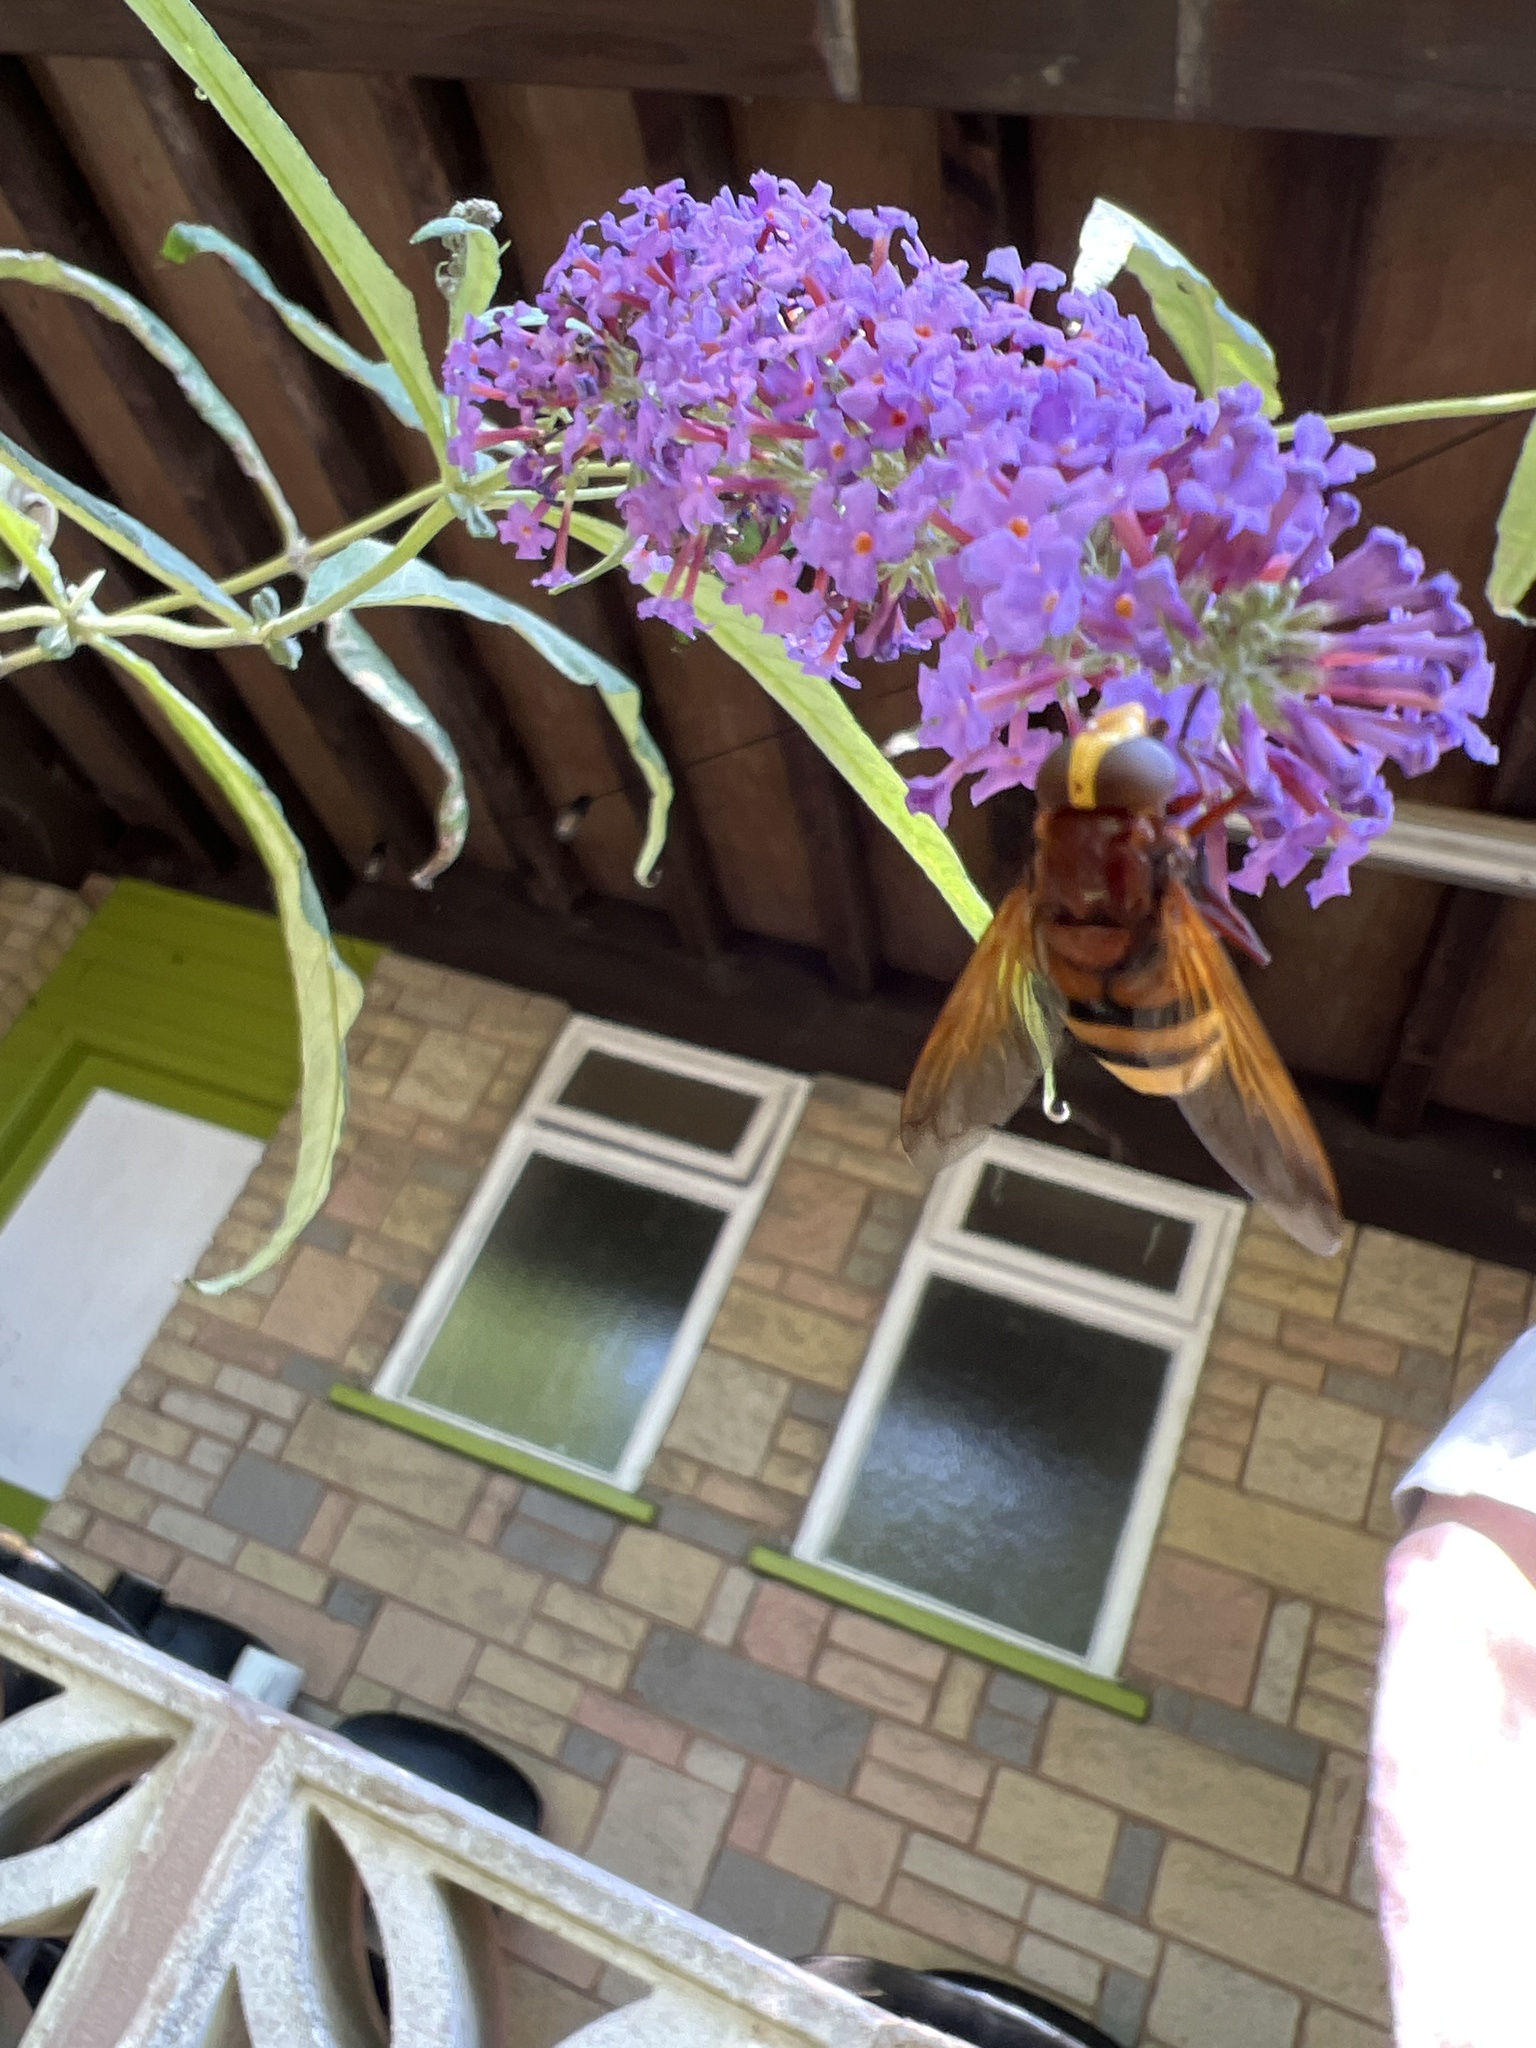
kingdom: Animalia
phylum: Arthropoda
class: Insecta
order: Diptera
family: Syrphidae
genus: Volucella
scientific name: Volucella zonaria
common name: Hornet hoverfly
